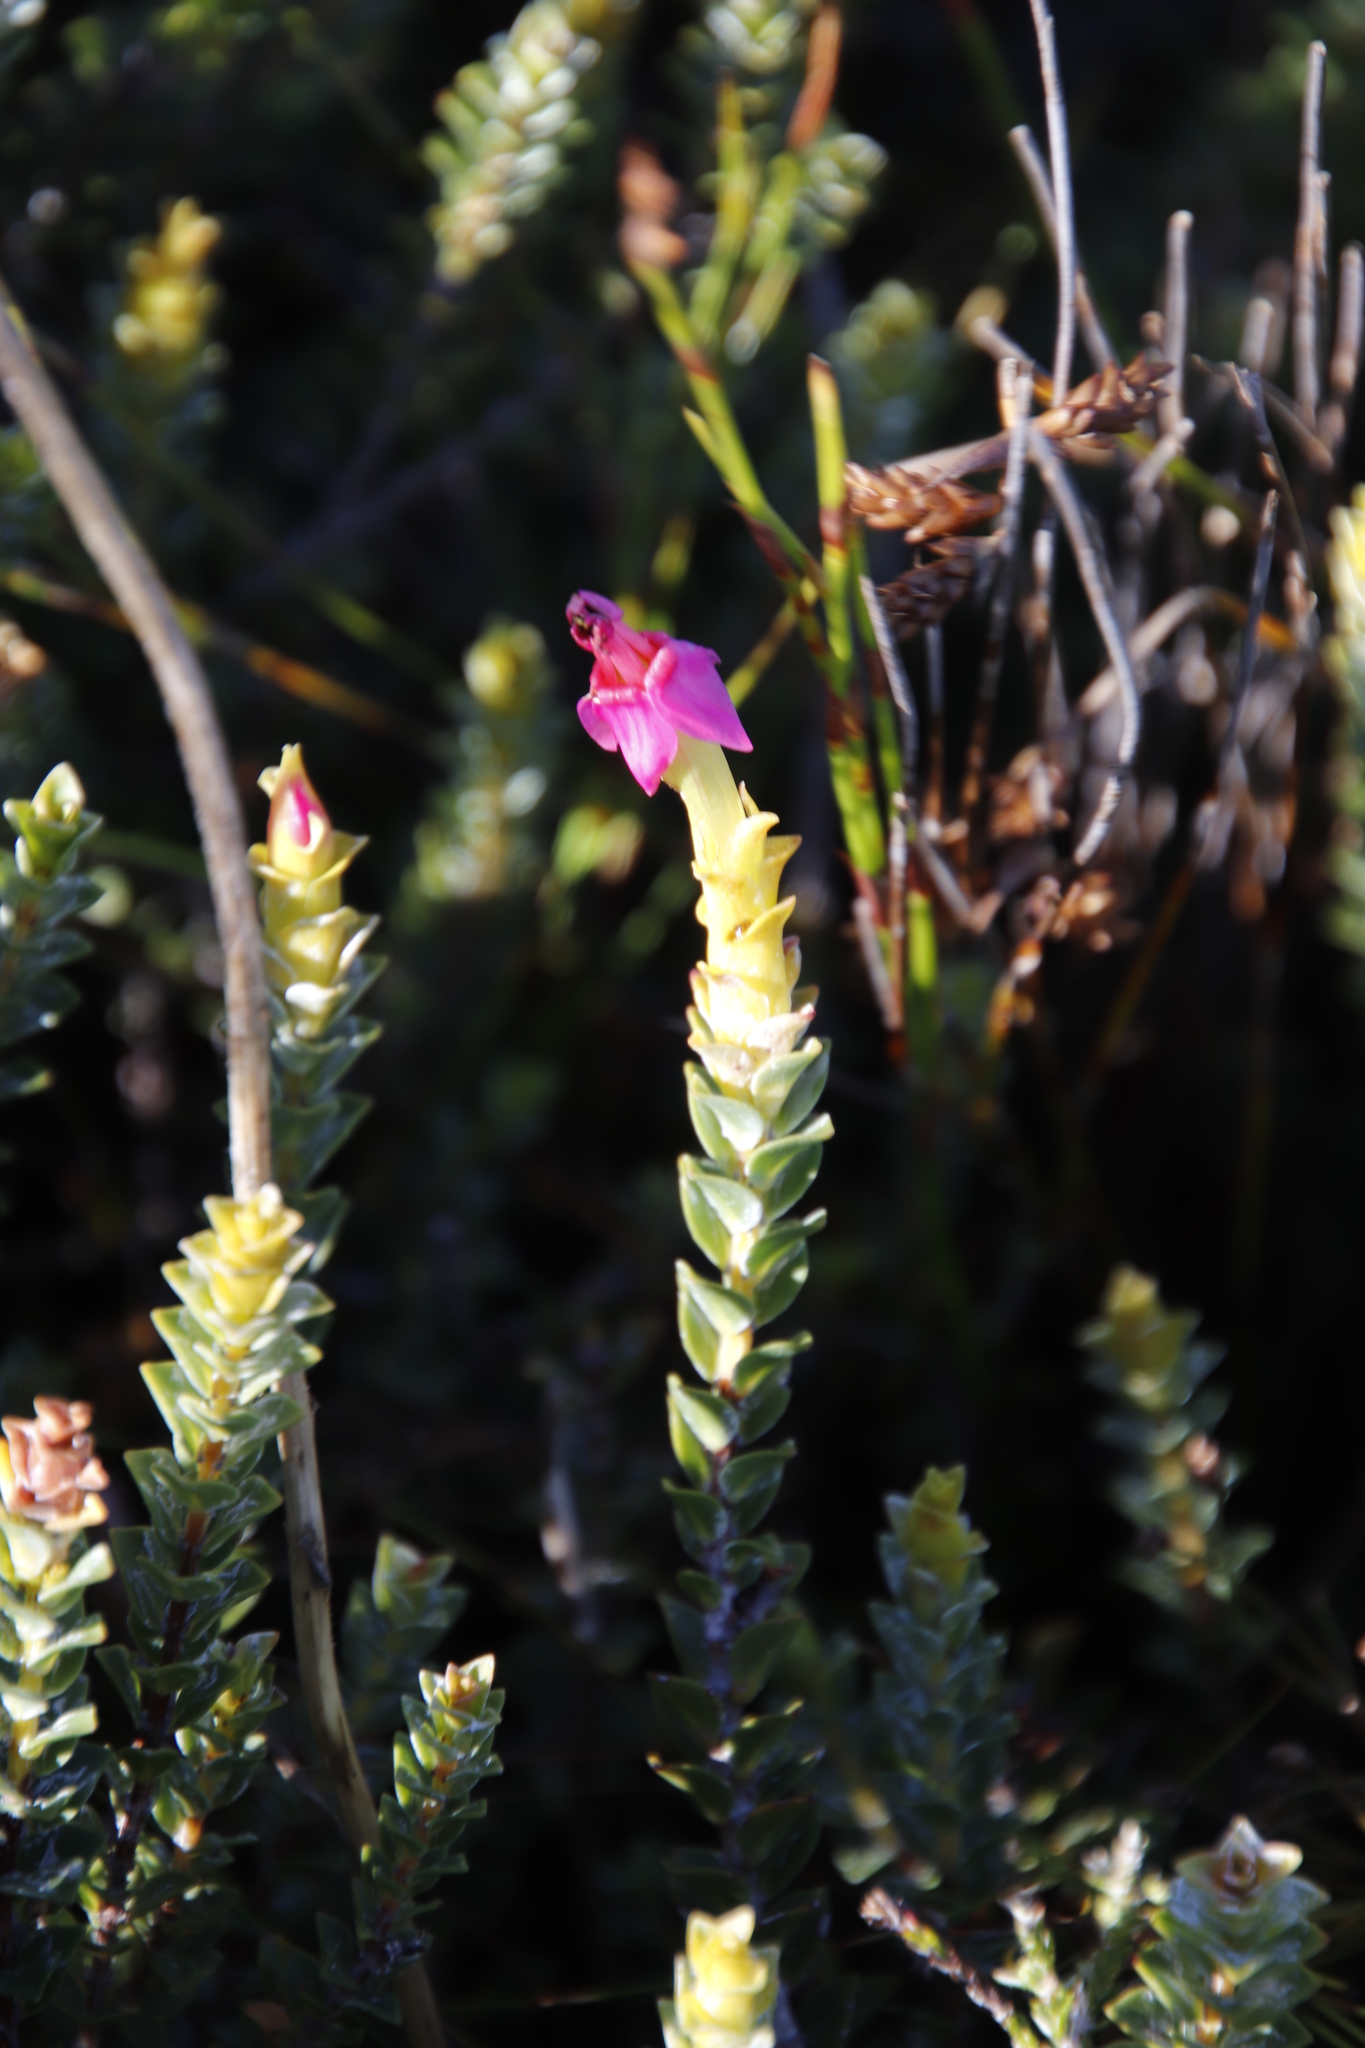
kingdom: Plantae
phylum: Tracheophyta
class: Magnoliopsida
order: Myrtales
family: Penaeaceae
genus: Saltera
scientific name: Saltera sarcocolla
